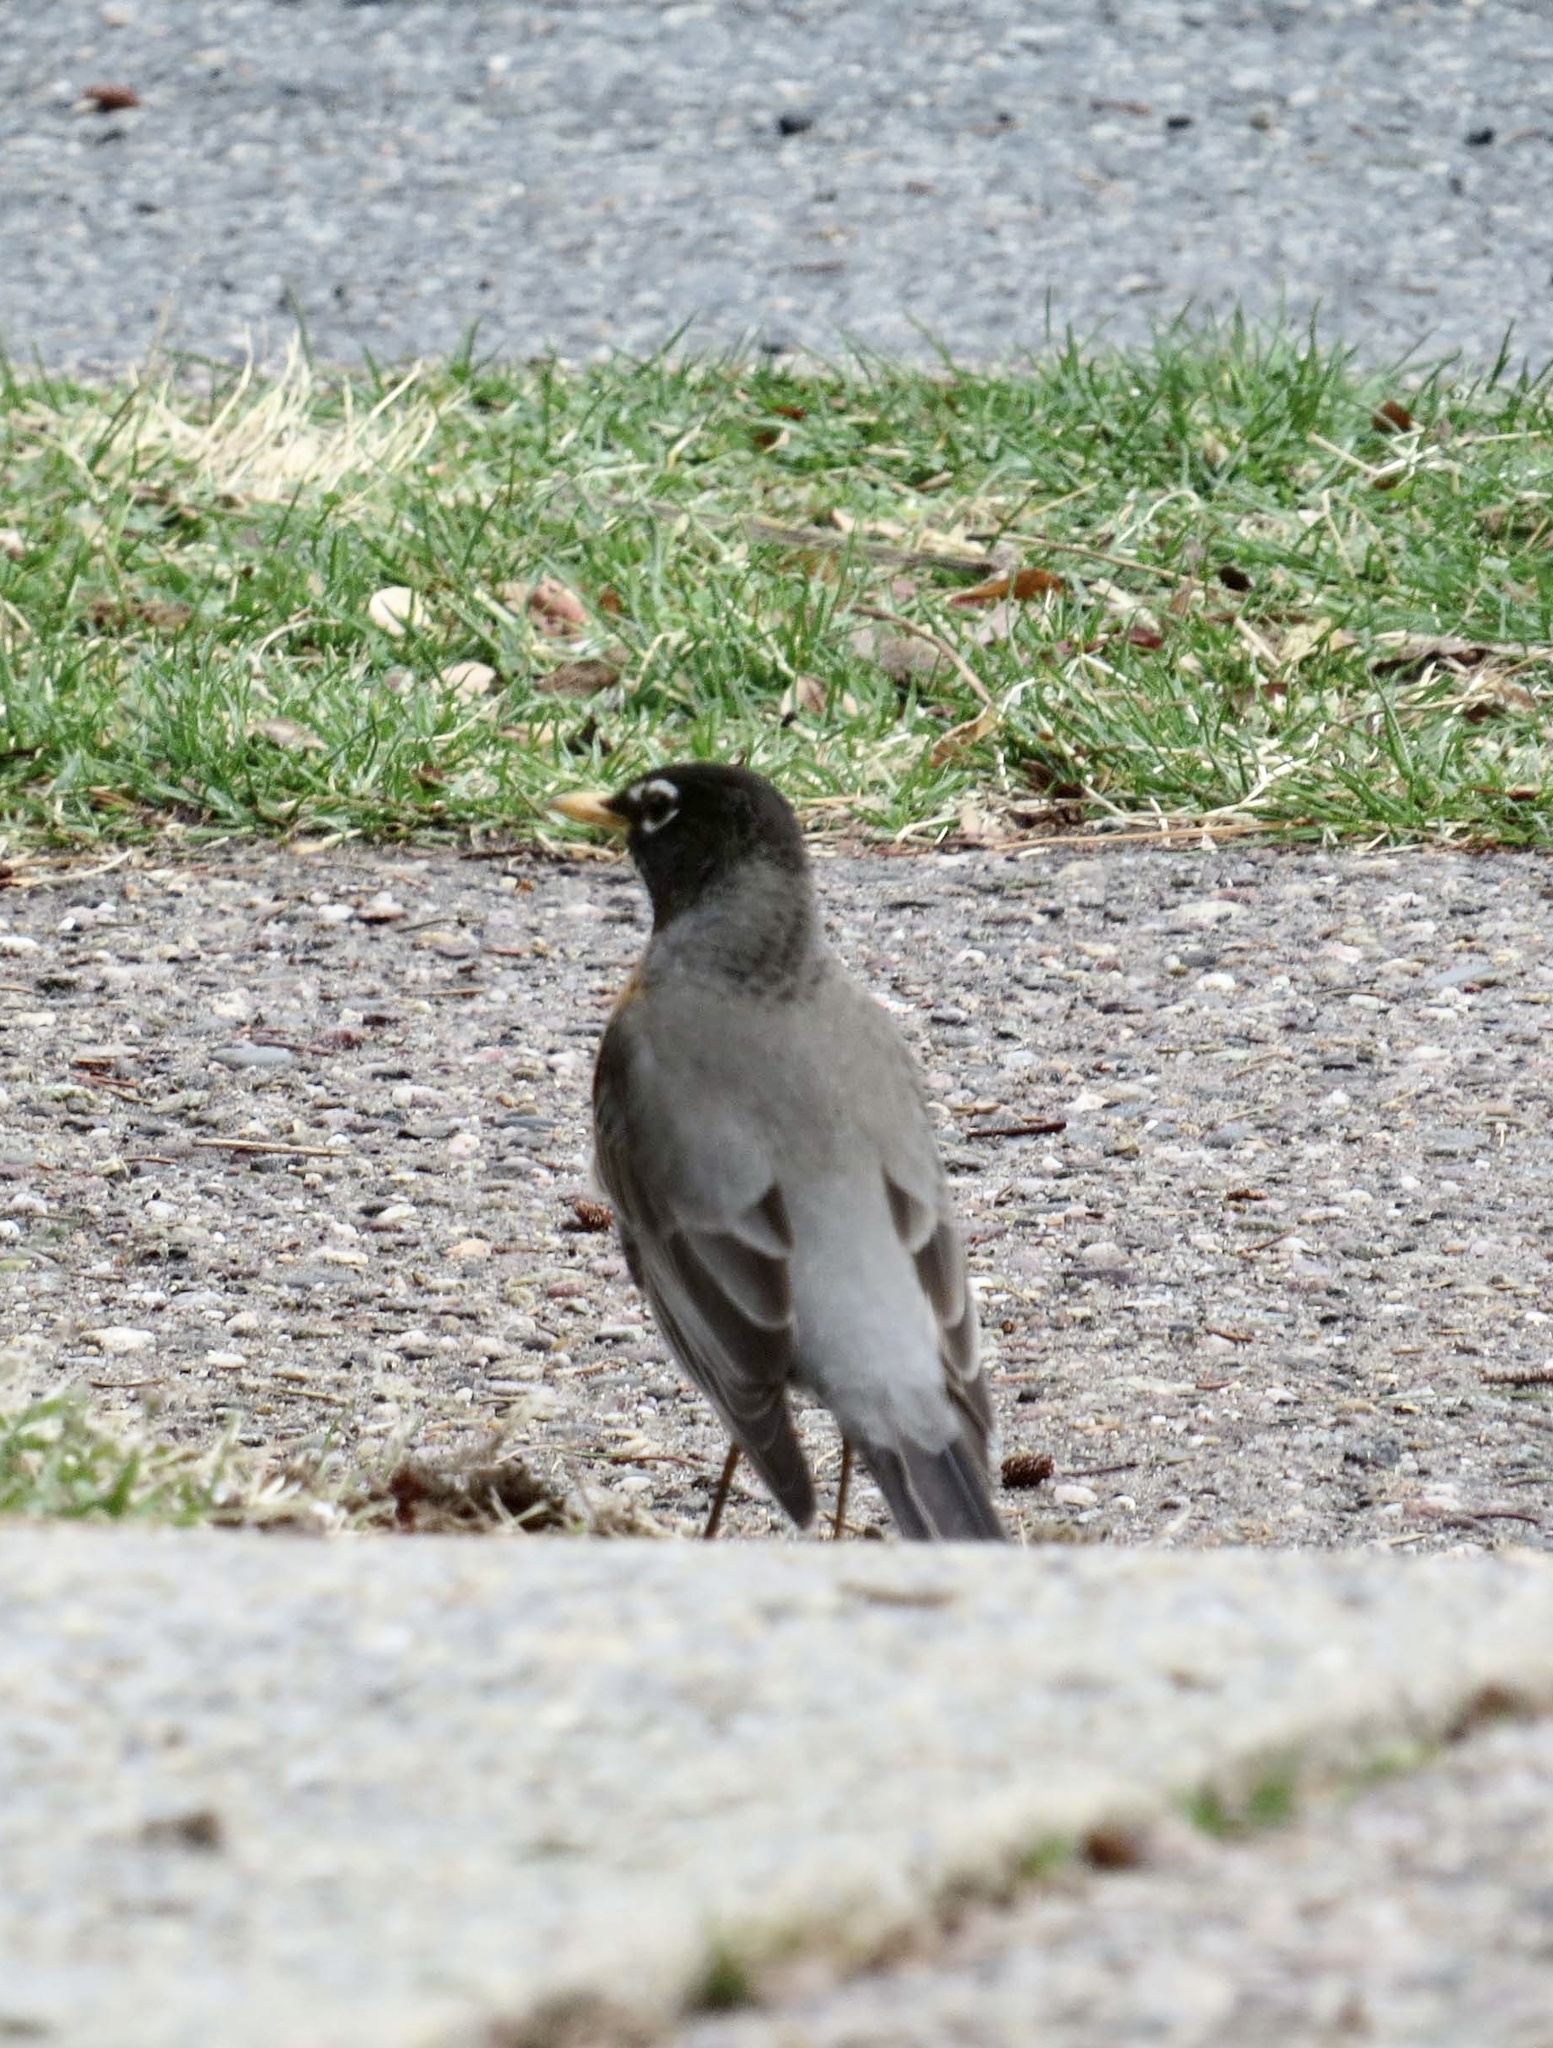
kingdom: Animalia
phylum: Chordata
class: Aves
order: Passeriformes
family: Turdidae
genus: Turdus
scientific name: Turdus migratorius
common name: American robin
